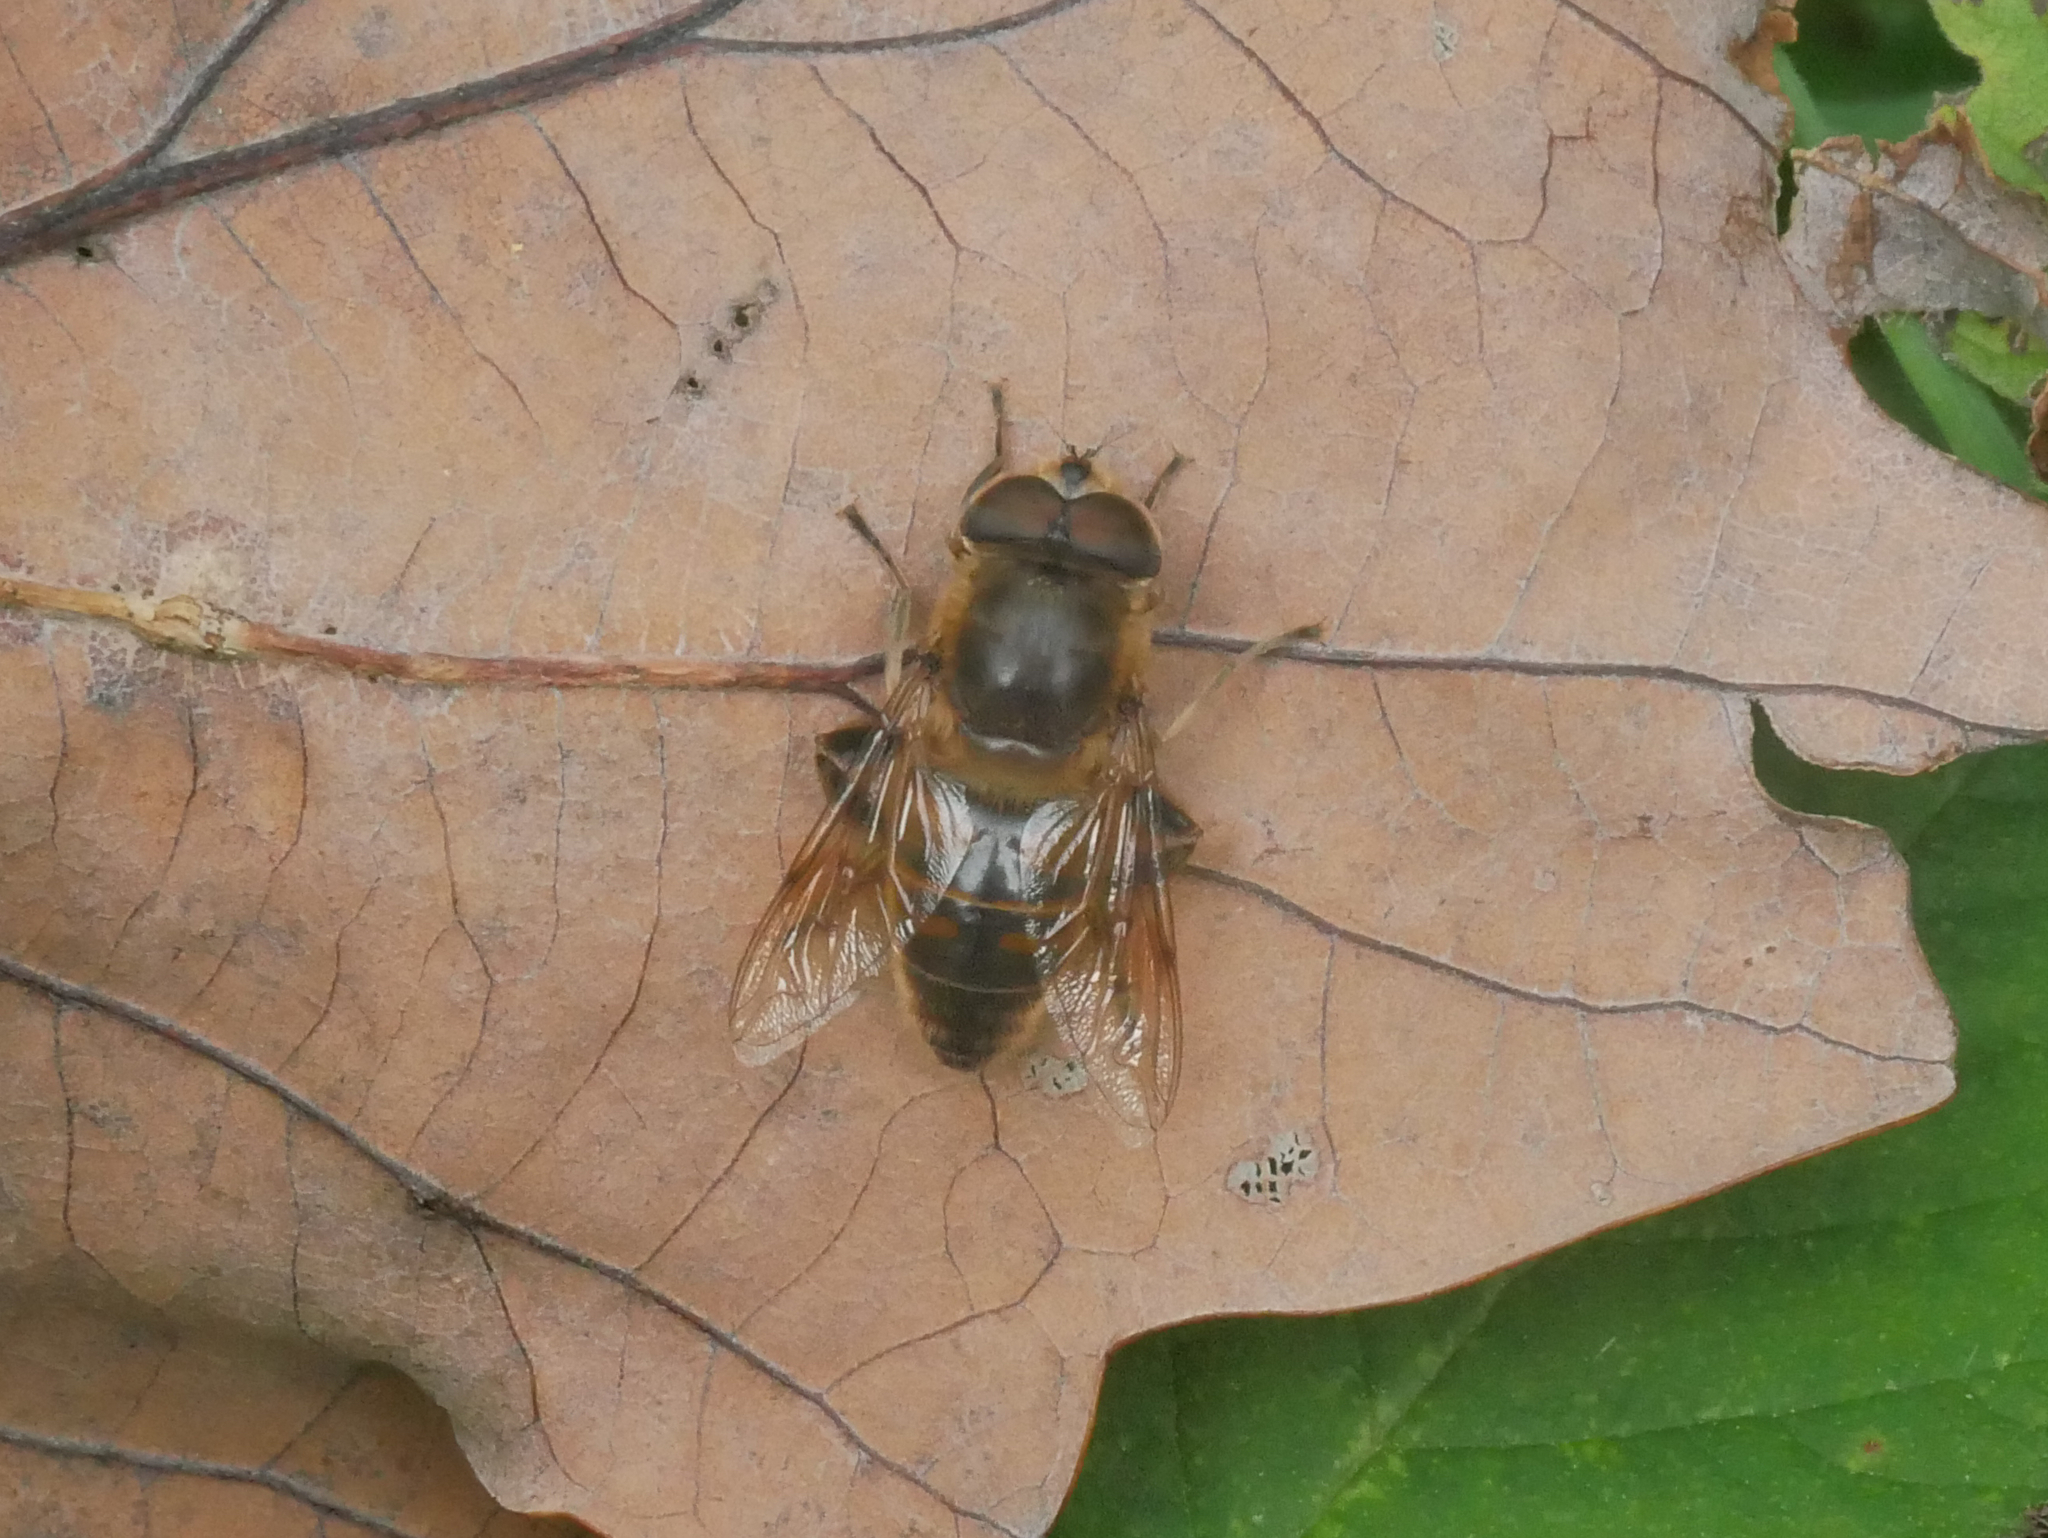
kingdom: Animalia
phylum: Arthropoda
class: Insecta
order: Diptera
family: Syrphidae
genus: Eristalis
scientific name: Eristalis tenax
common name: Drone fly
